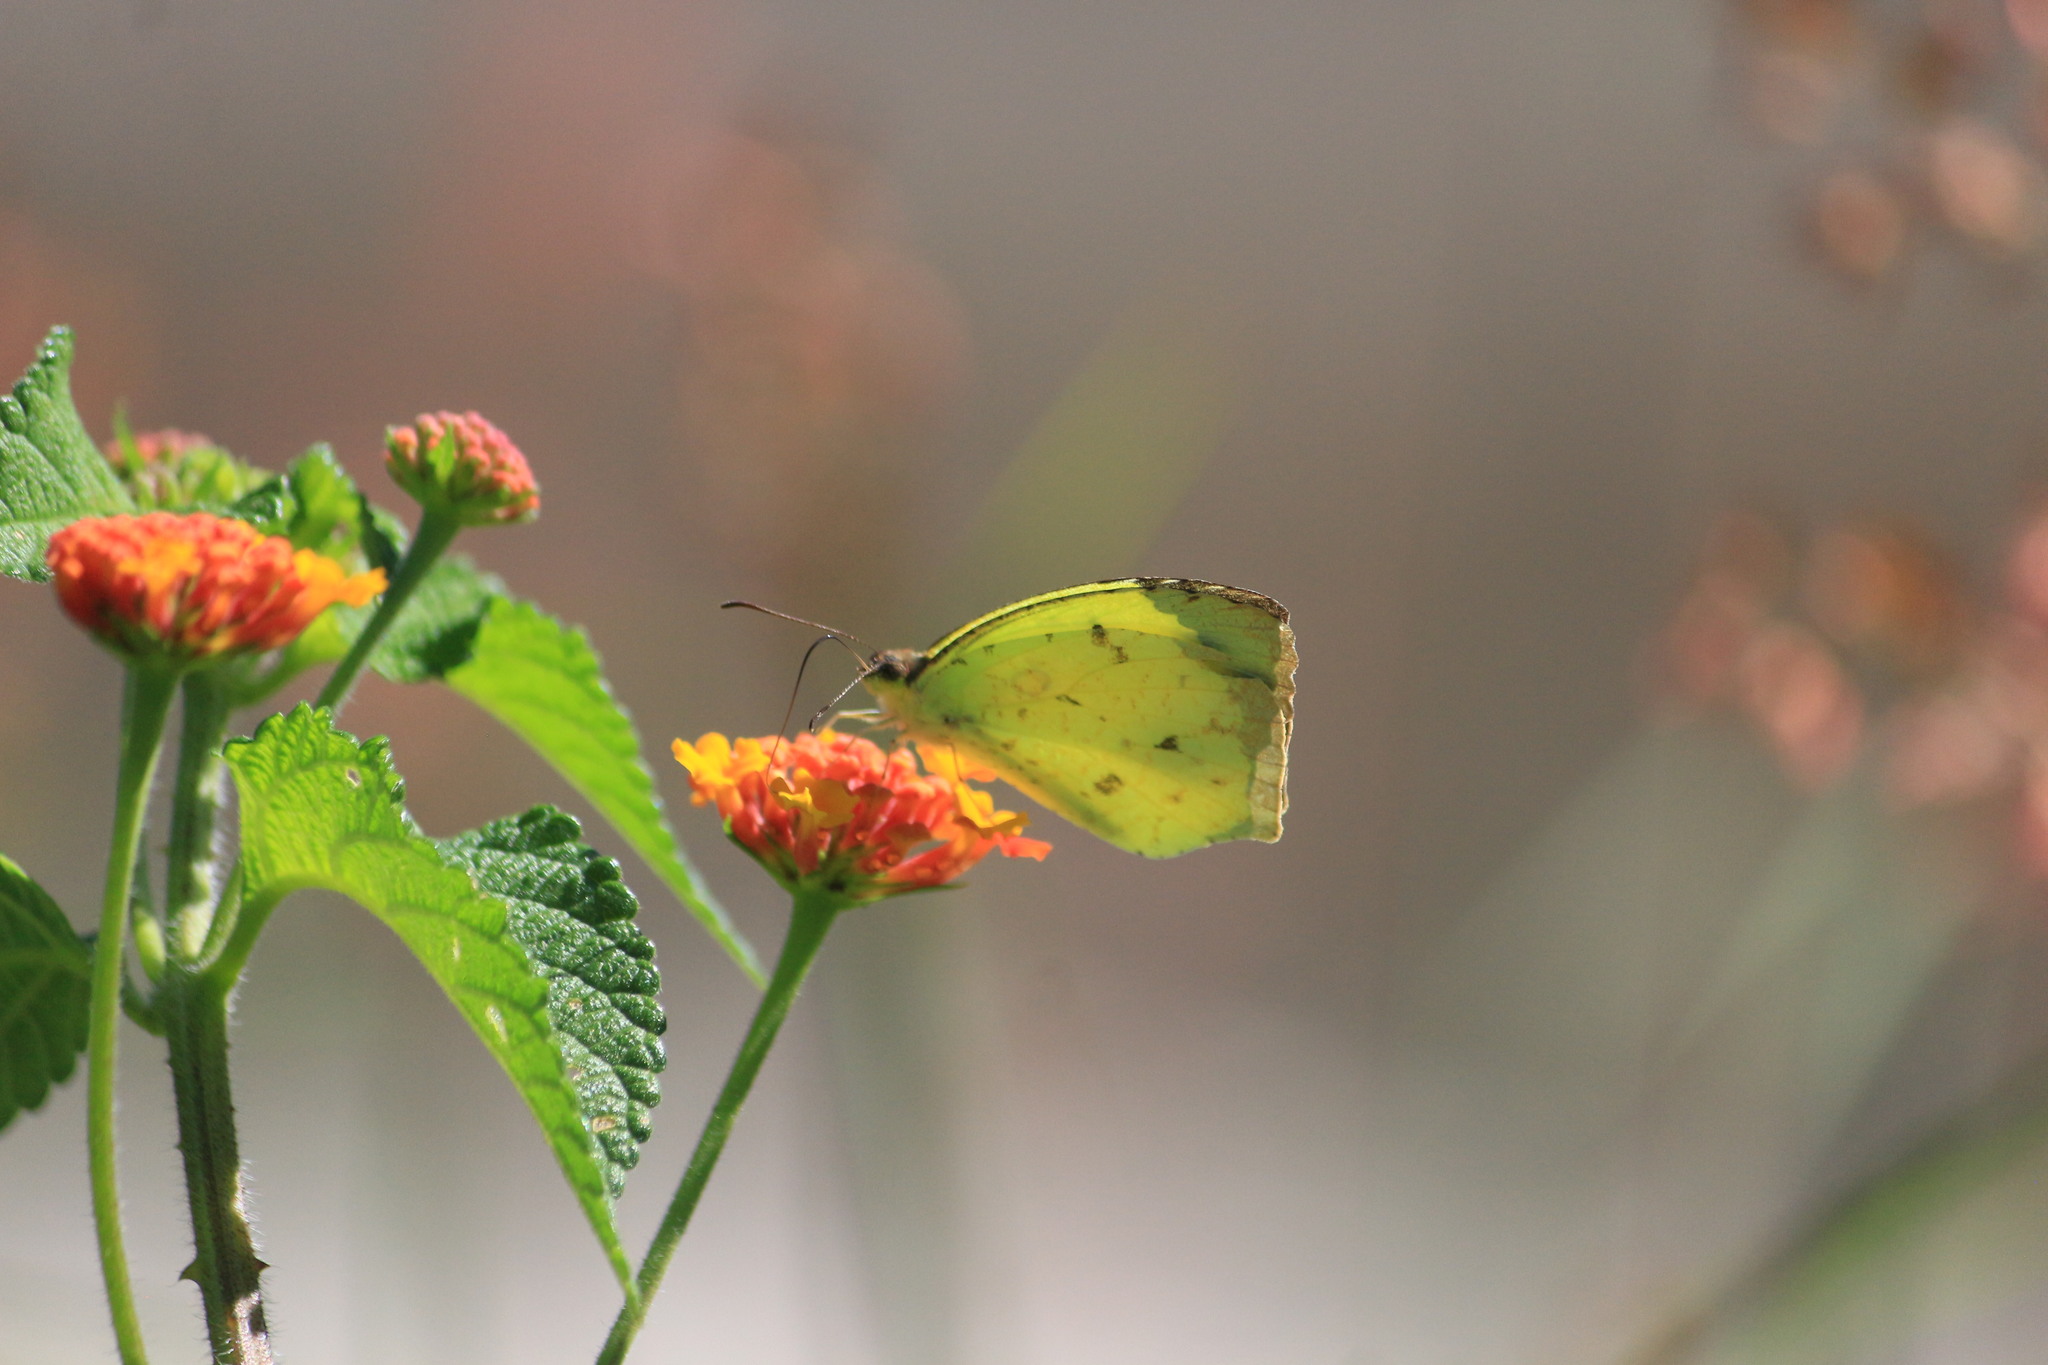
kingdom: Animalia
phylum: Arthropoda
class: Insecta
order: Lepidoptera
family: Pieridae
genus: Abaeis
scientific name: Abaeis salome
